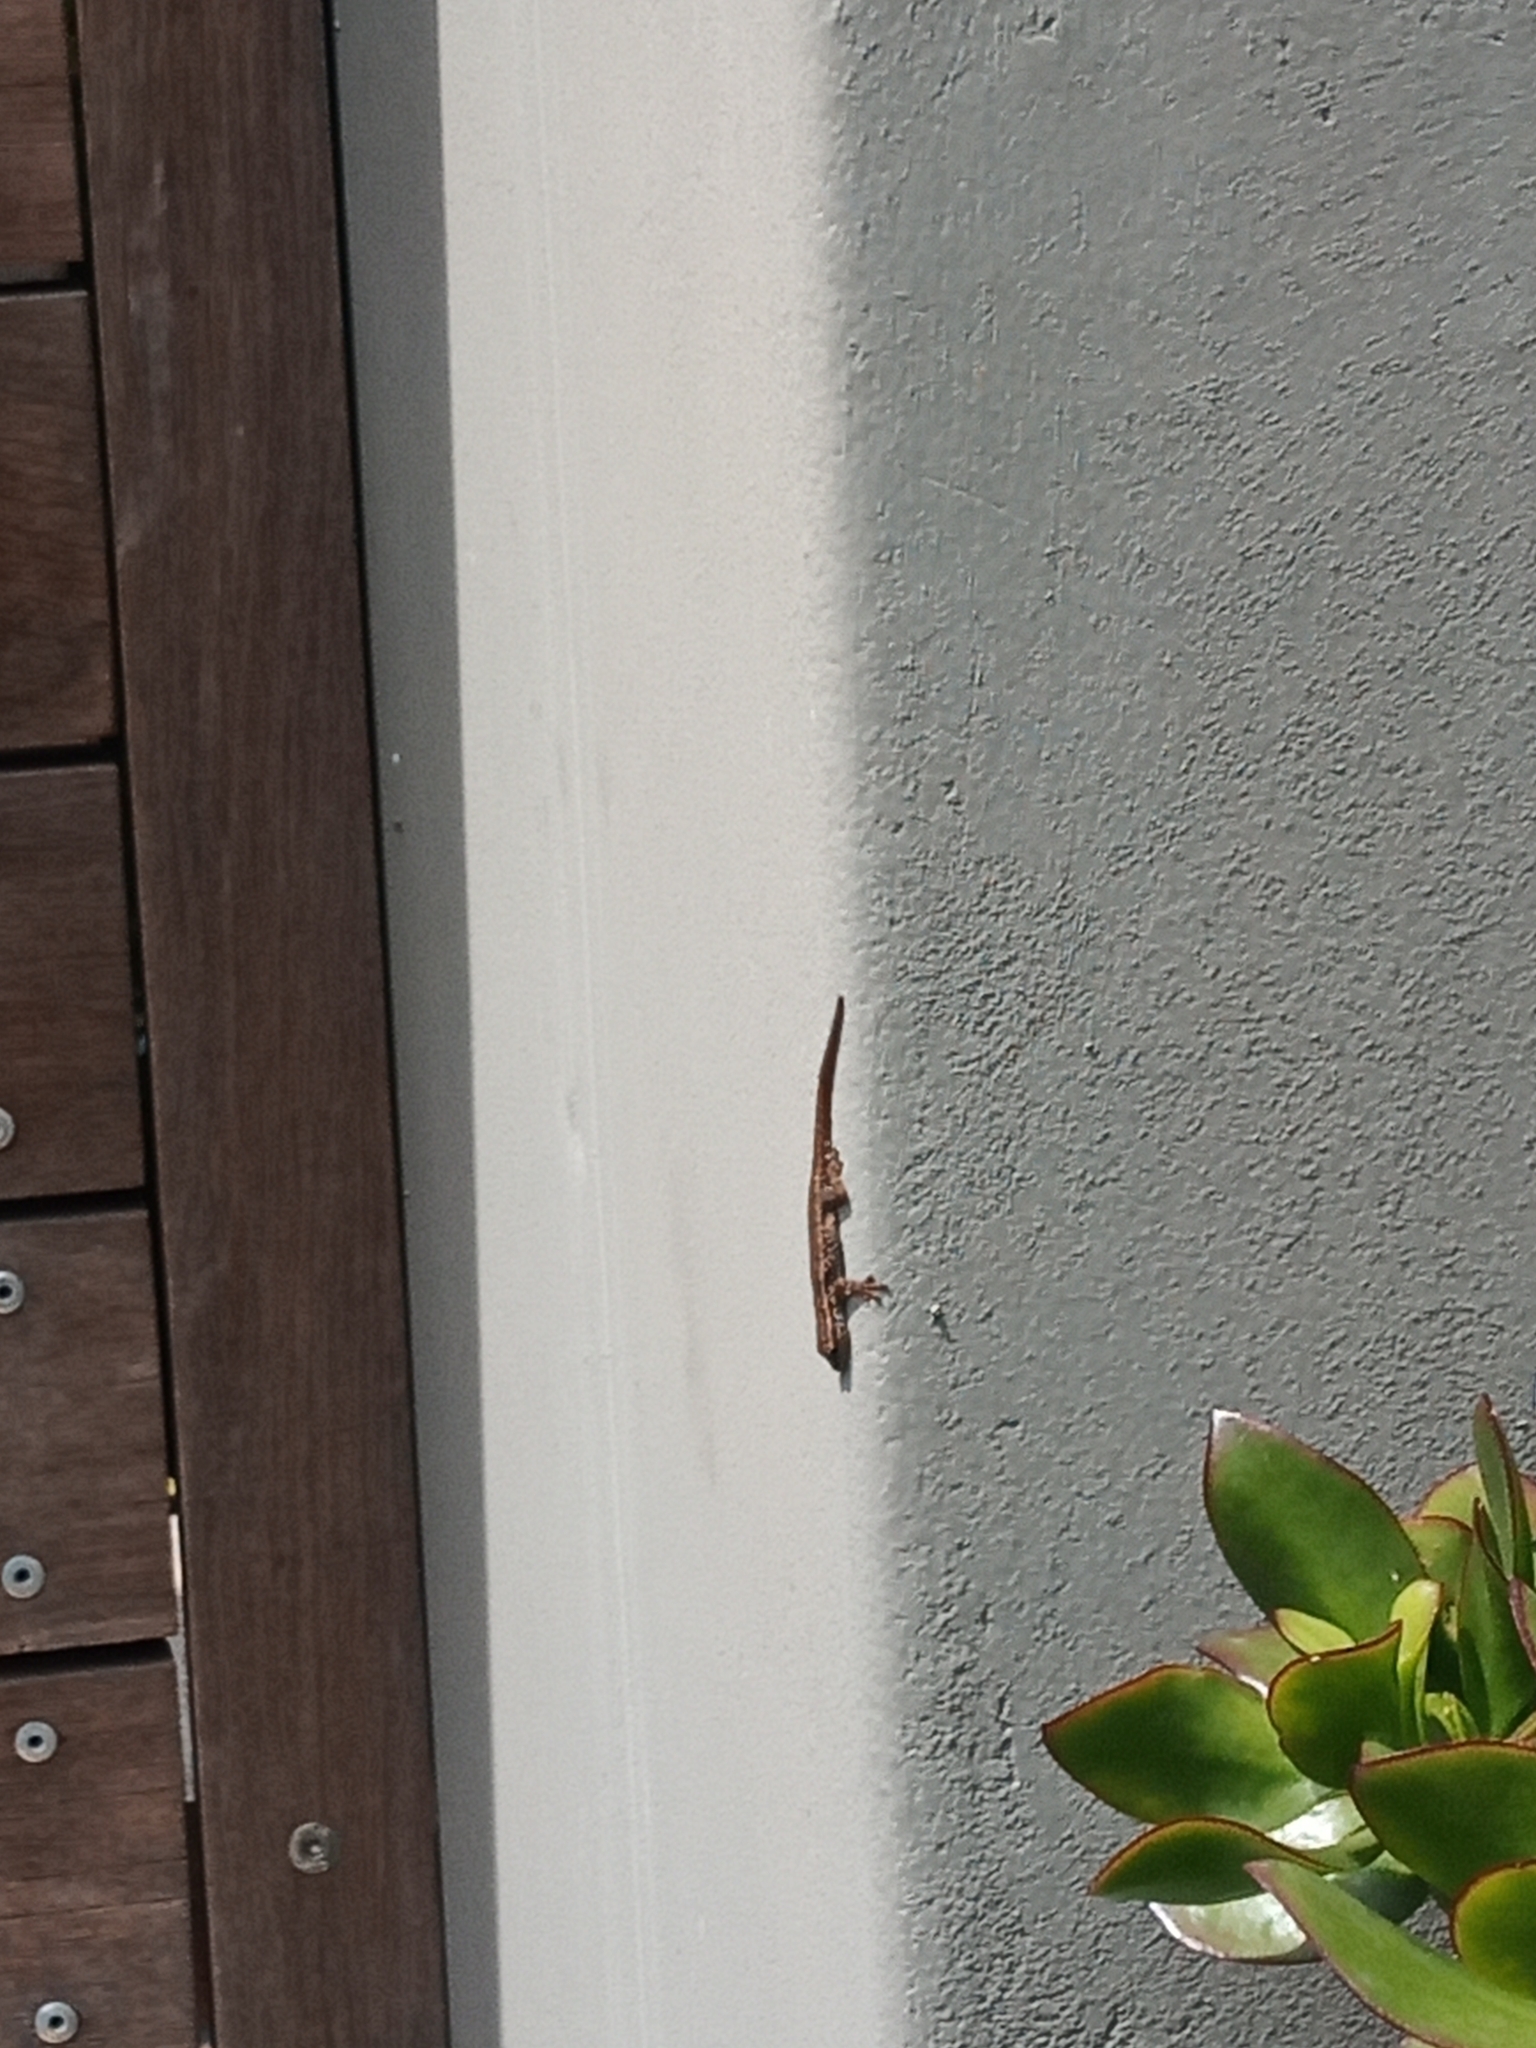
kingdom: Animalia
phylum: Chordata
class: Squamata
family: Gekkonidae
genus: Lygodactylus
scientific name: Lygodactylus capensis
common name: Cape dwarf gecko
